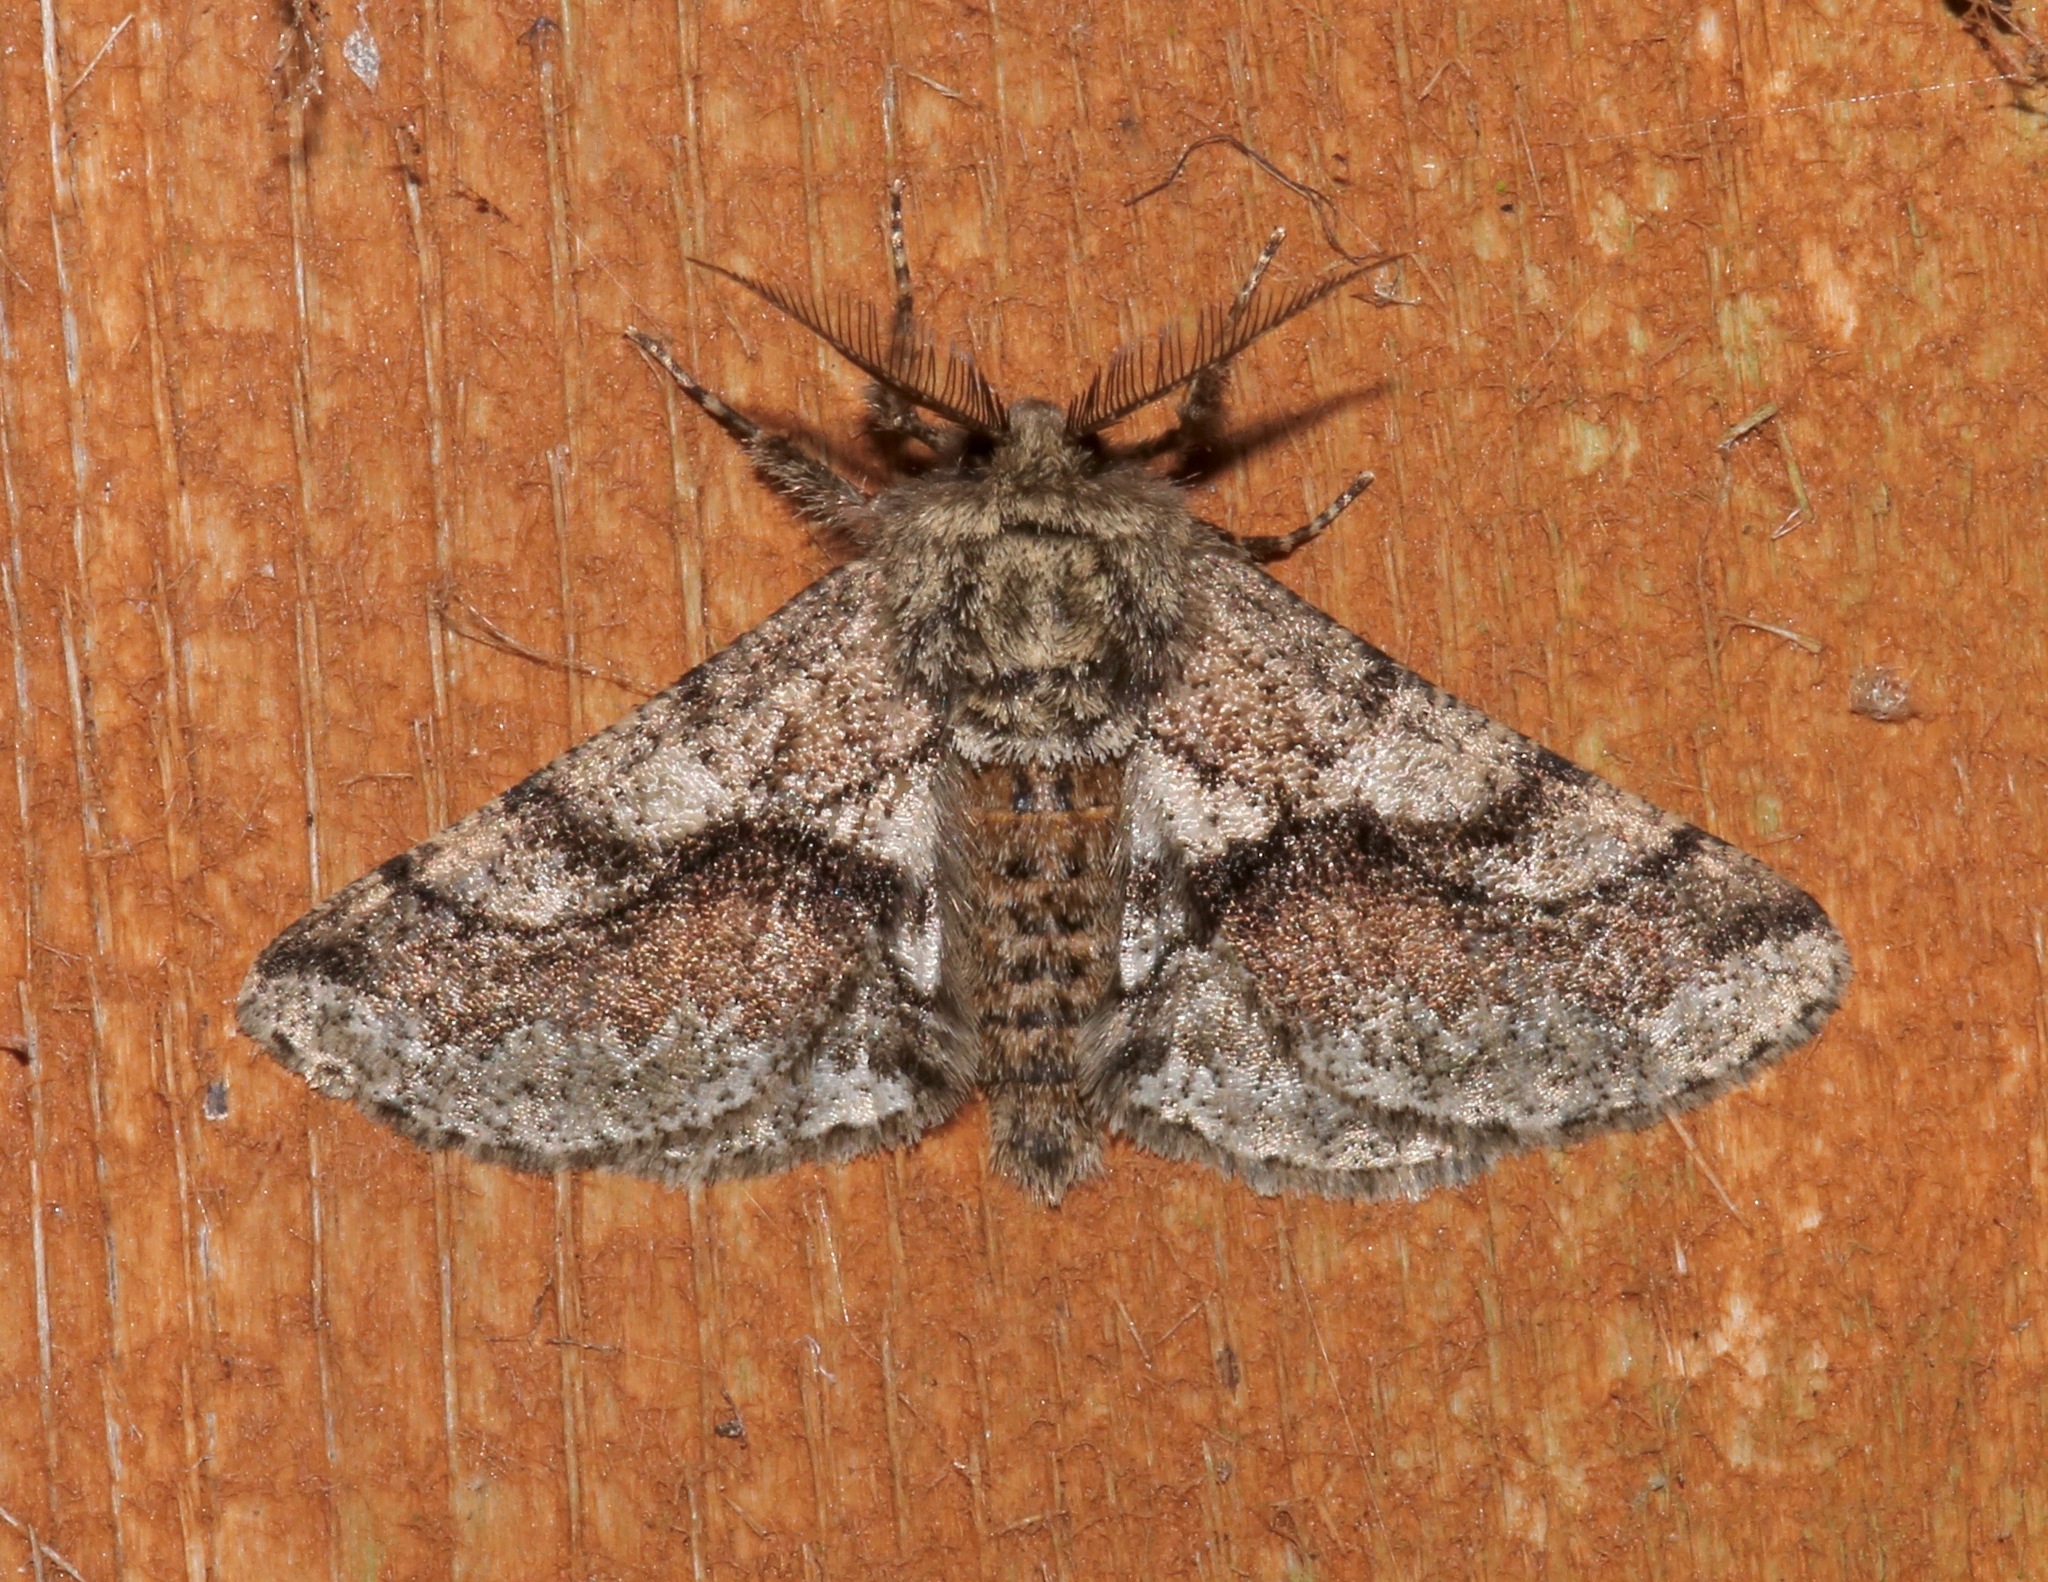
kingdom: Animalia
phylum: Arthropoda
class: Insecta
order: Lepidoptera
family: Geometridae
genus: Lycia
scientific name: Lycia ypsilon
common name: Wooly gray
